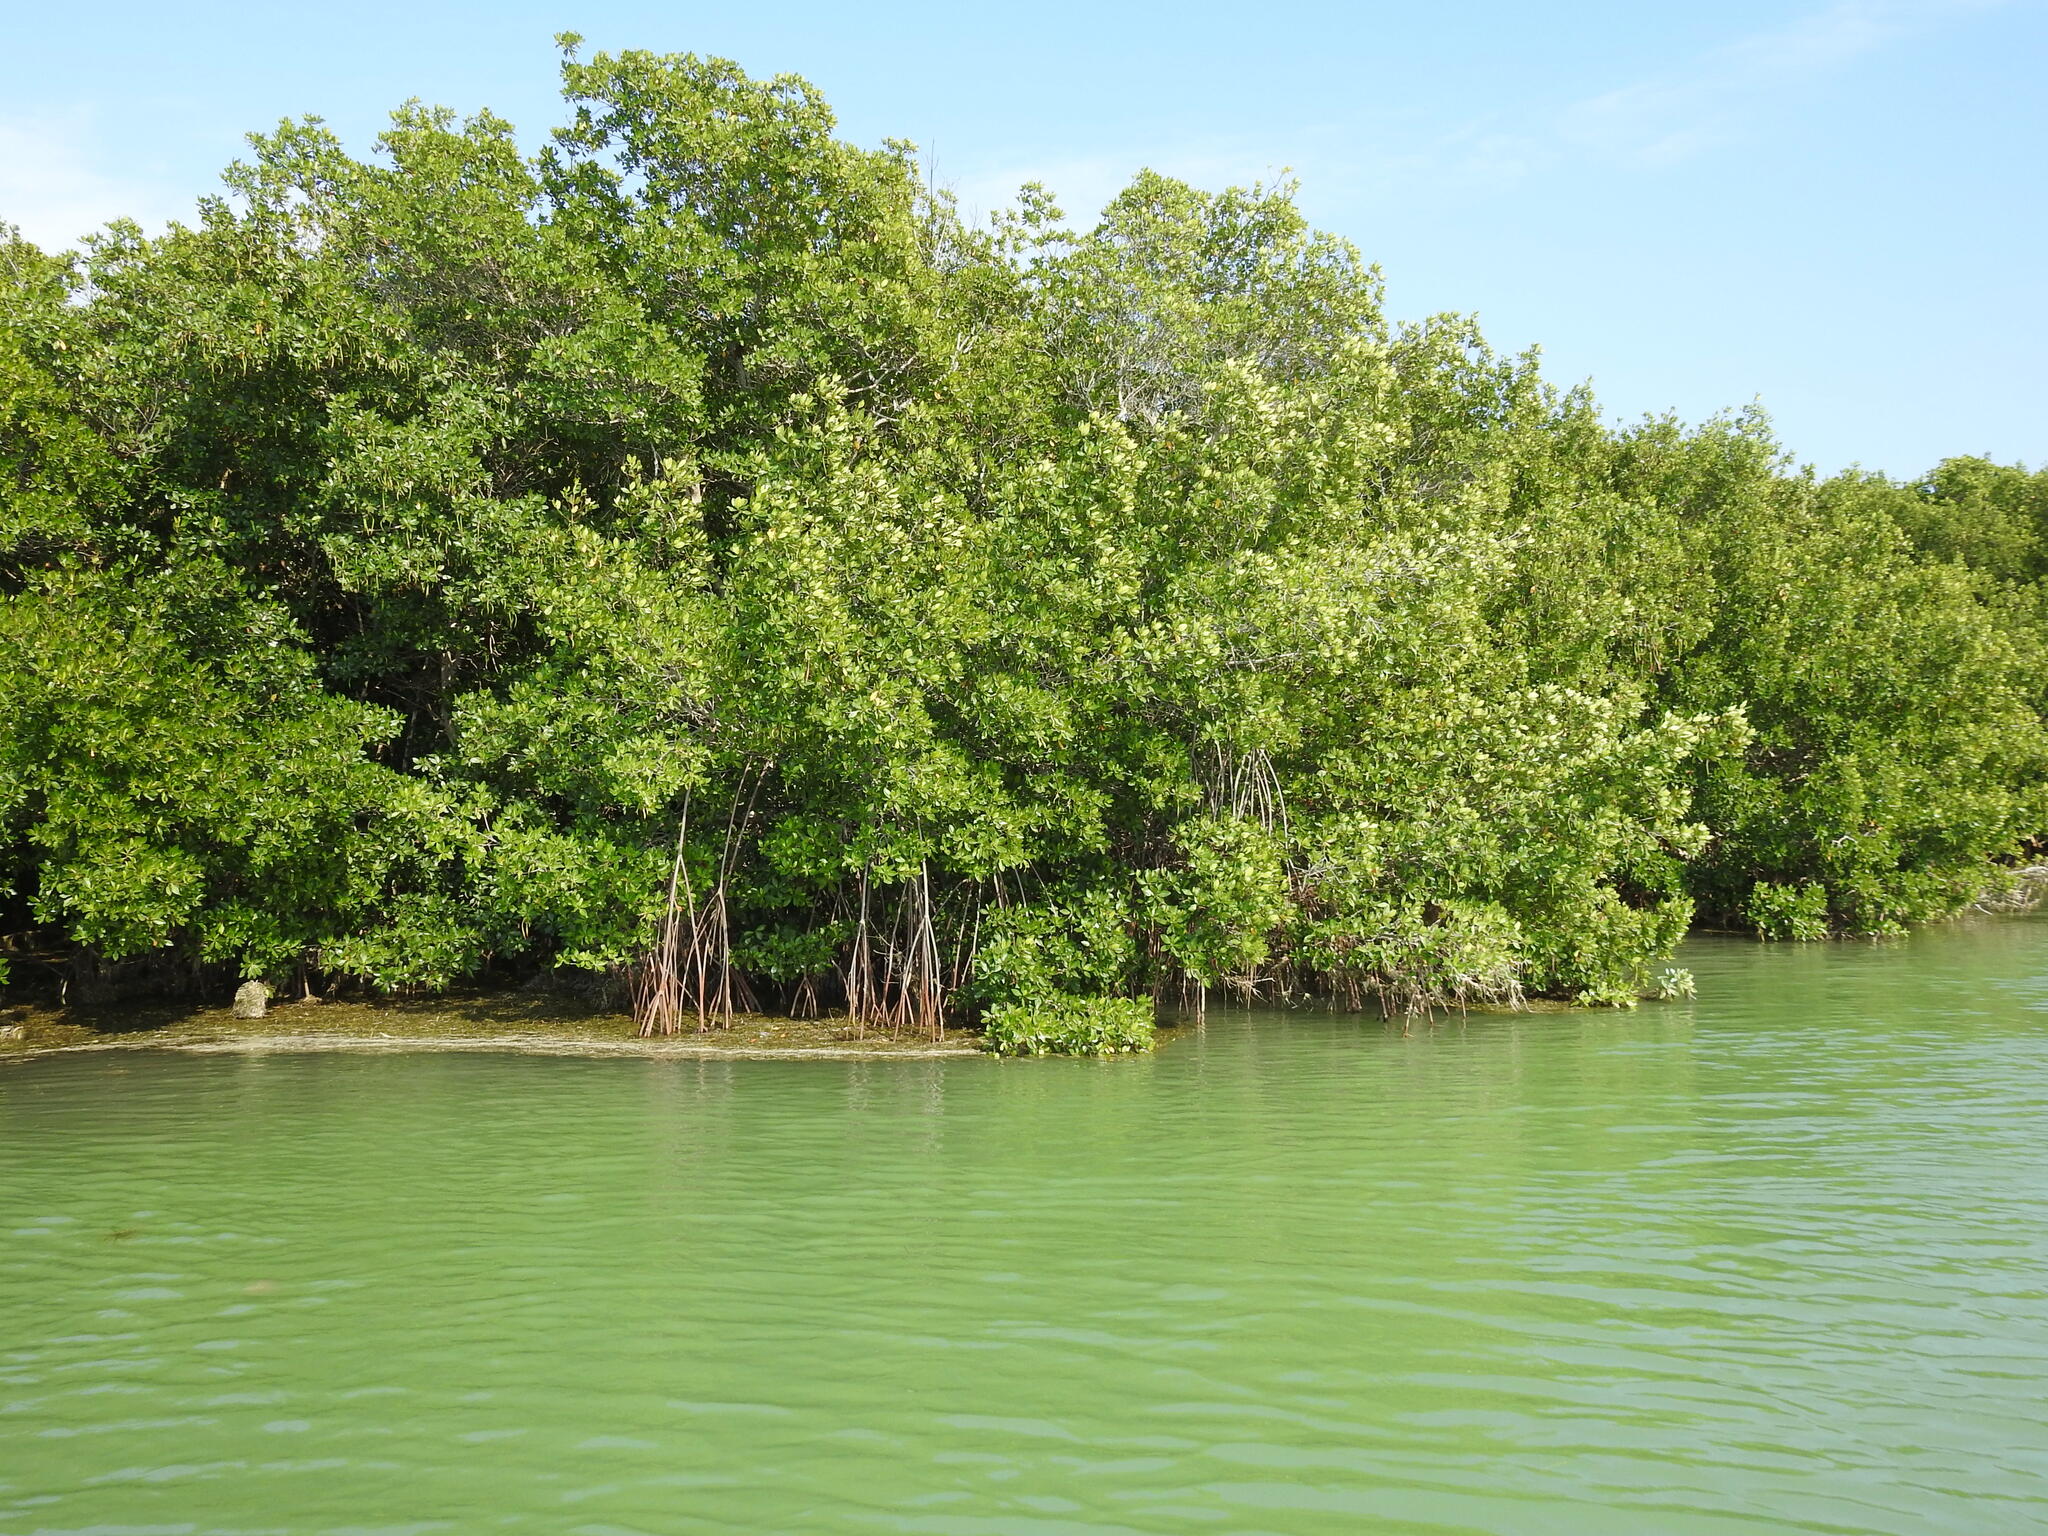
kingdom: Plantae
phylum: Tracheophyta
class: Magnoliopsida
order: Malpighiales
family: Rhizophoraceae
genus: Rhizophora
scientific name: Rhizophora mangle
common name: Red mangrove
